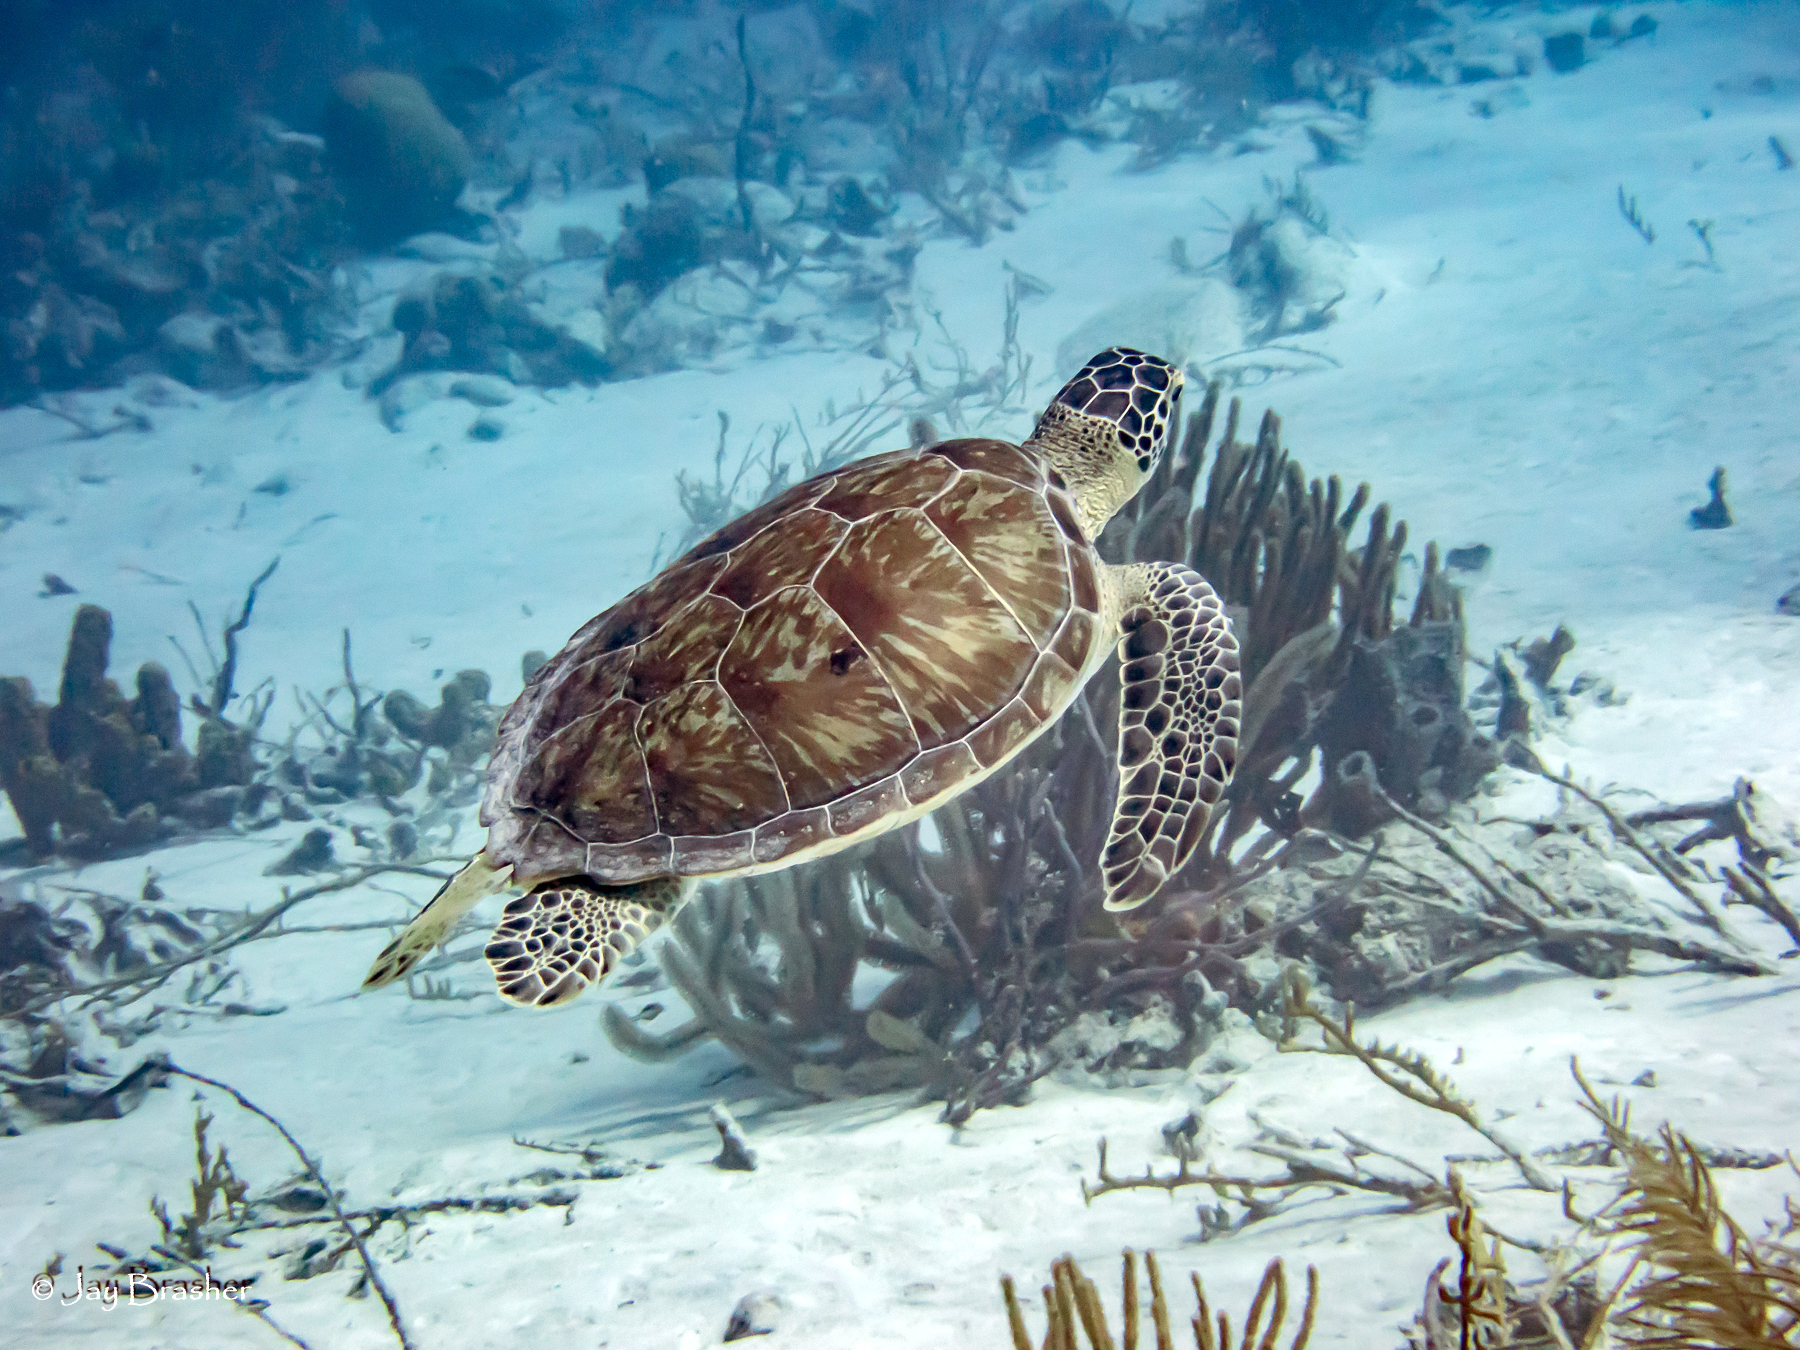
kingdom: Animalia
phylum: Chordata
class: Testudines
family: Cheloniidae
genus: Chelonia
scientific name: Chelonia mydas
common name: Green turtle
